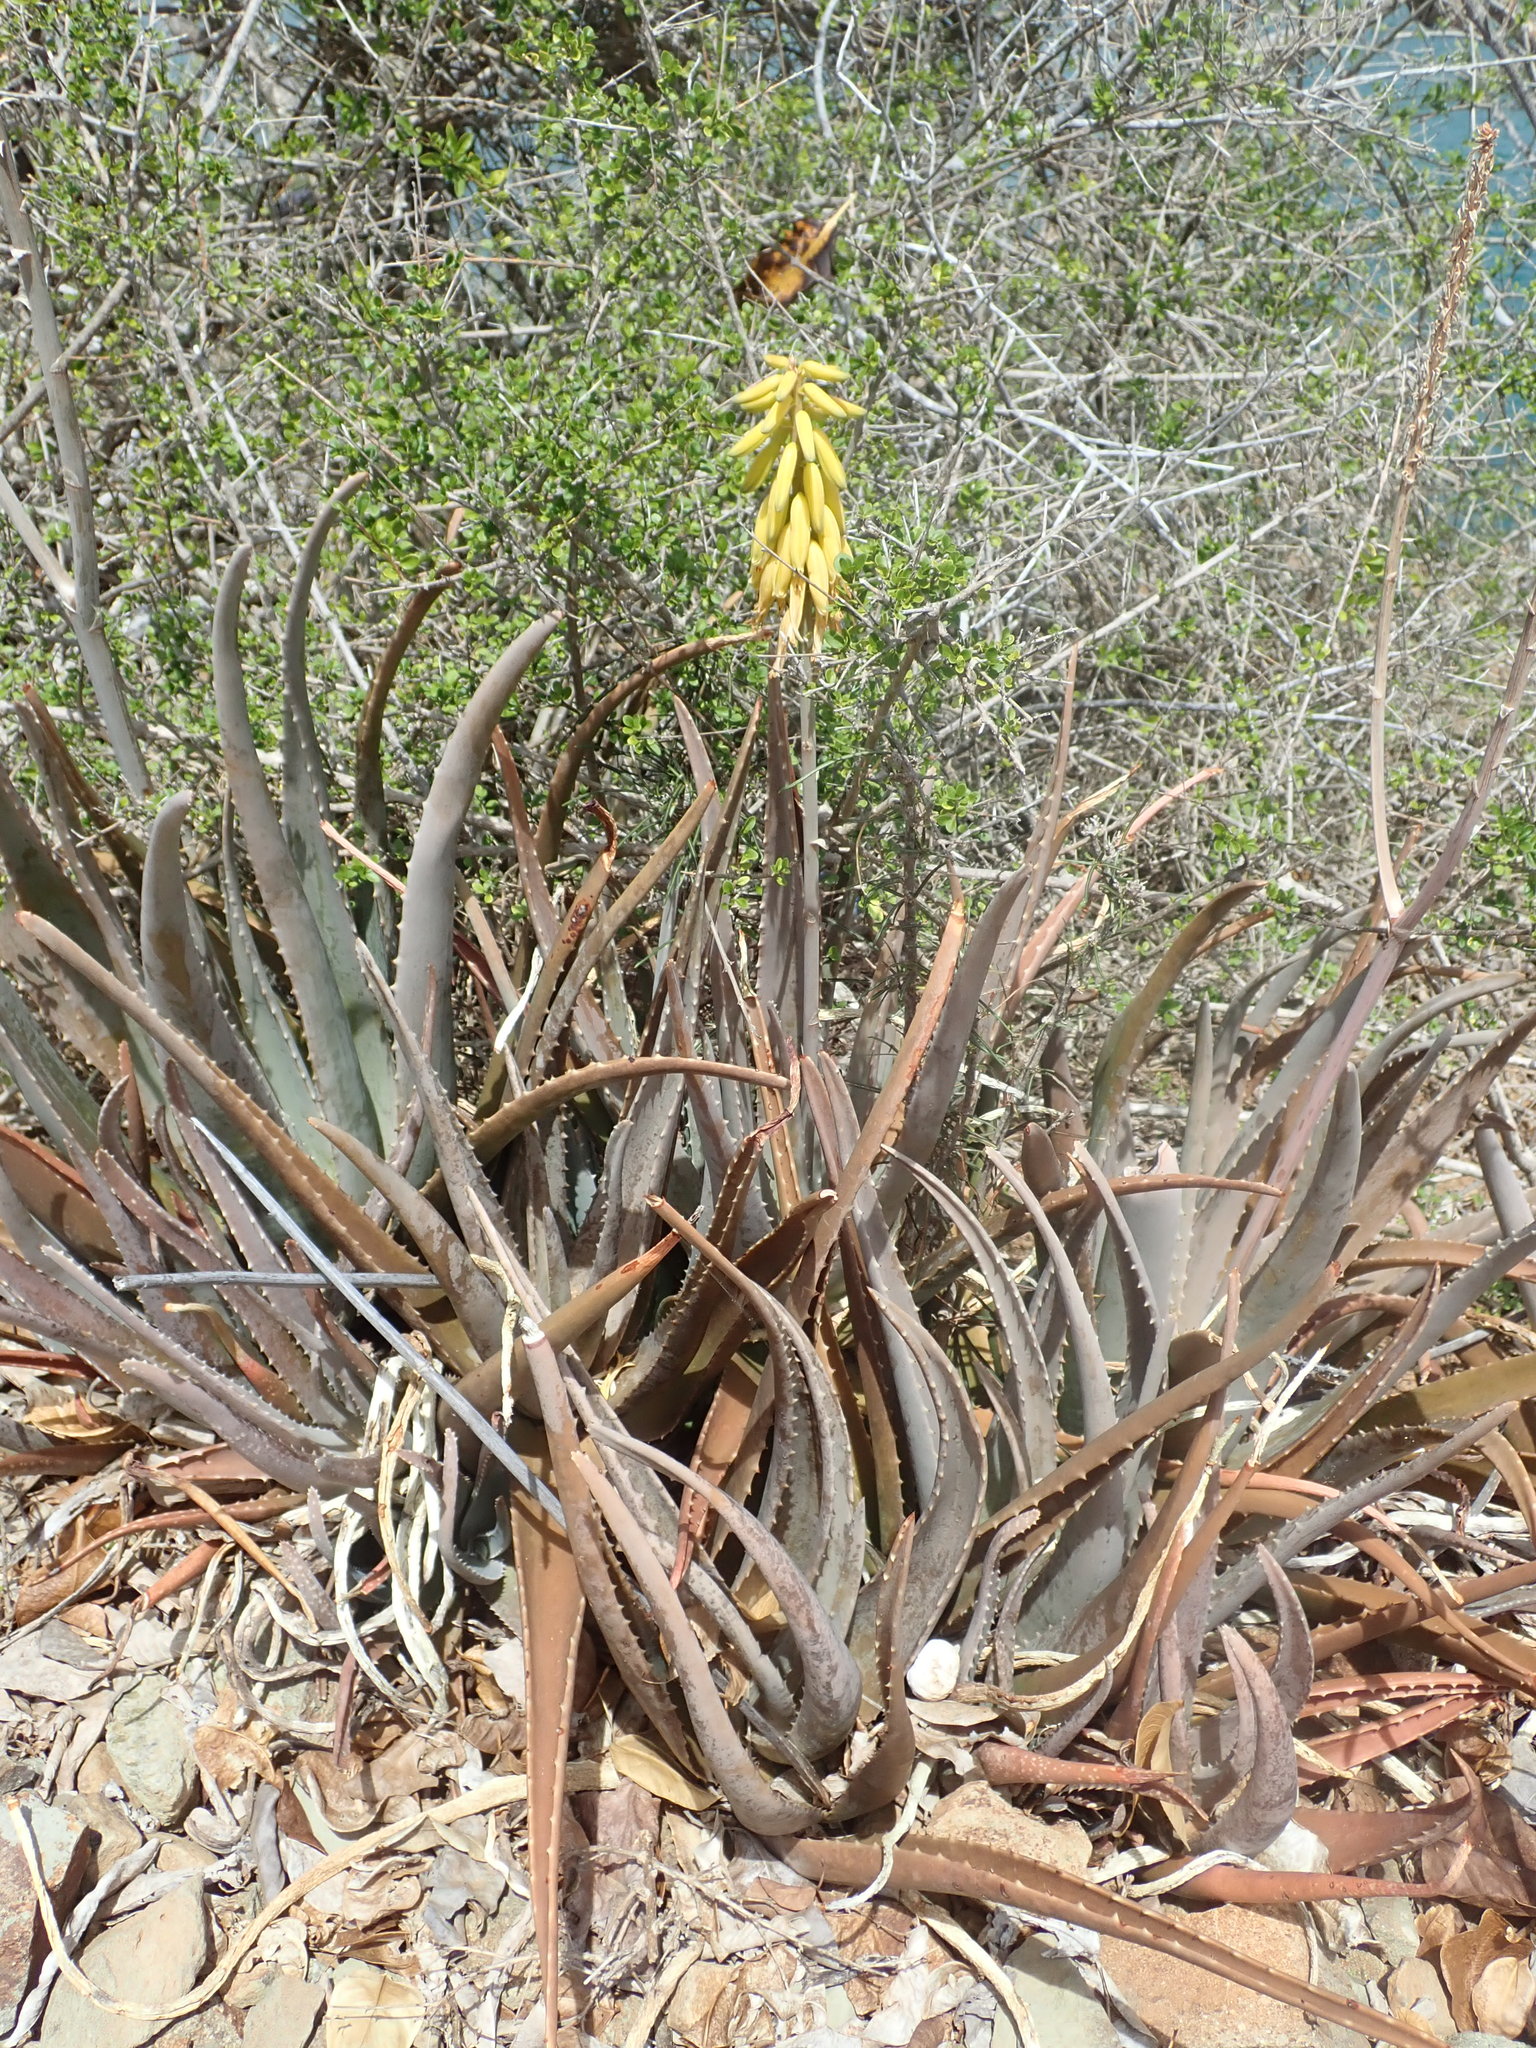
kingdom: Plantae
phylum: Tracheophyta
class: Liliopsida
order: Asparagales
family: Asphodelaceae
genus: Aloe
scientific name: Aloe vera
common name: Barbados aloe
